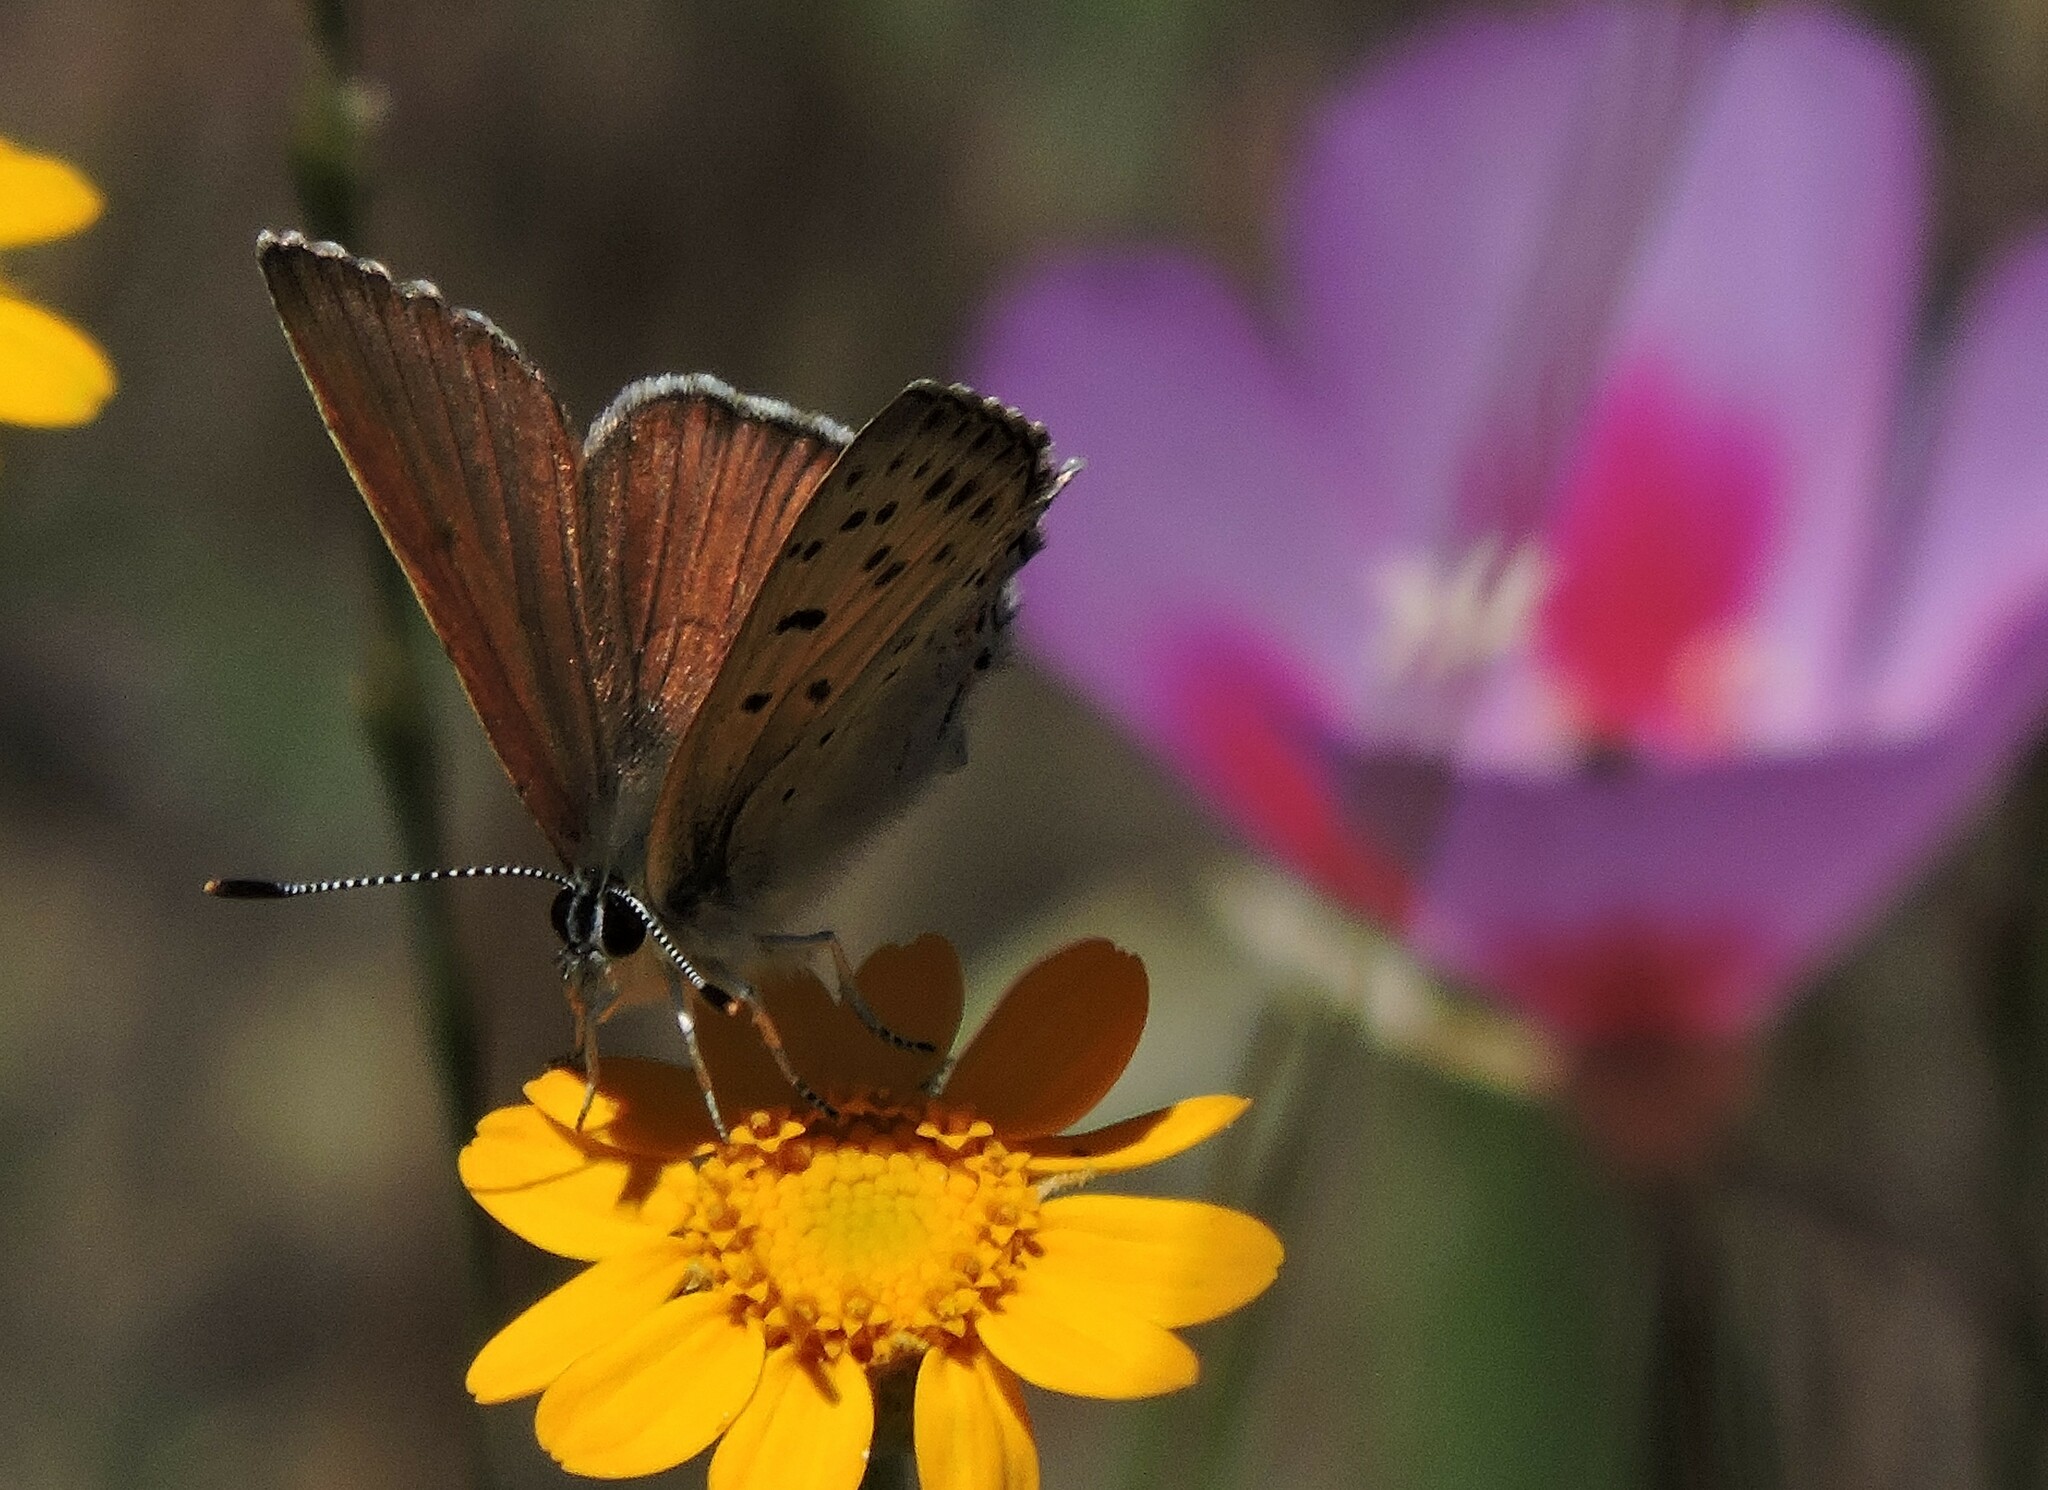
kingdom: Animalia
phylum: Arthropoda
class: Insecta
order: Lepidoptera
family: Lycaenidae
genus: Tharsalea
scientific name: Tharsalea gorgon
